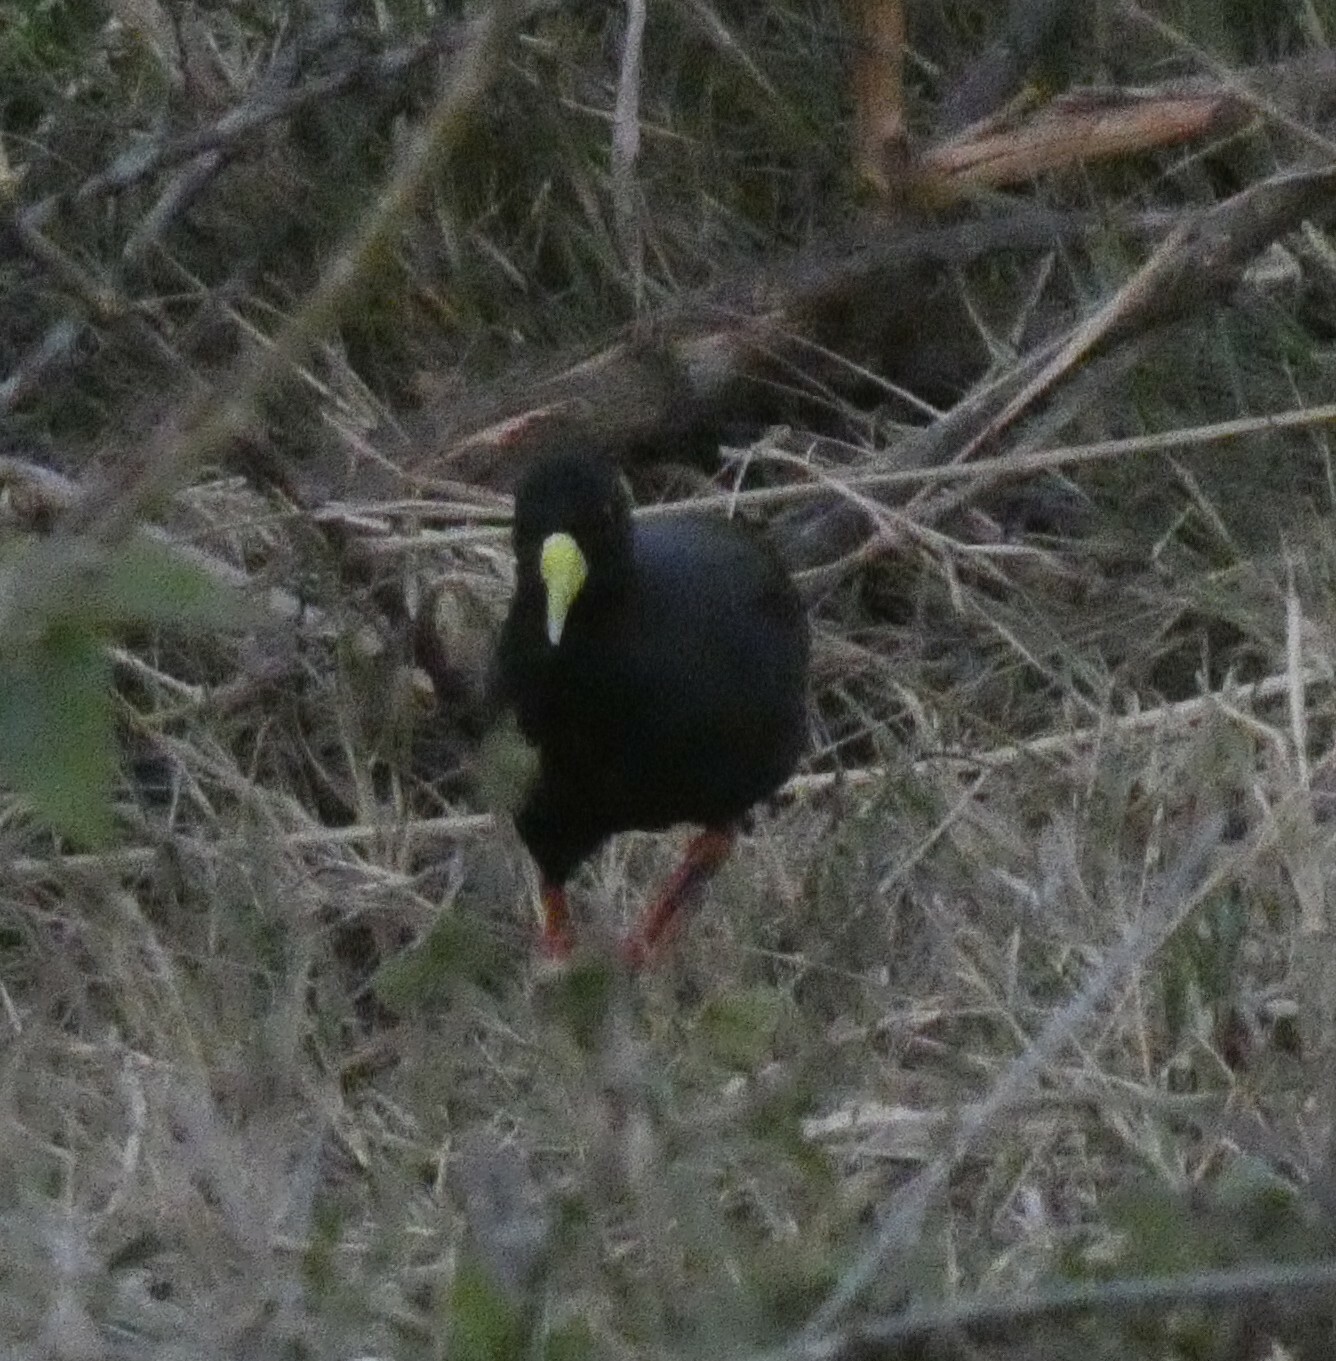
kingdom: Animalia
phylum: Chordata
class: Aves
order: Gruiformes
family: Rallidae
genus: Amaurornis
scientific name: Amaurornis flavirostra
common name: Black crake
